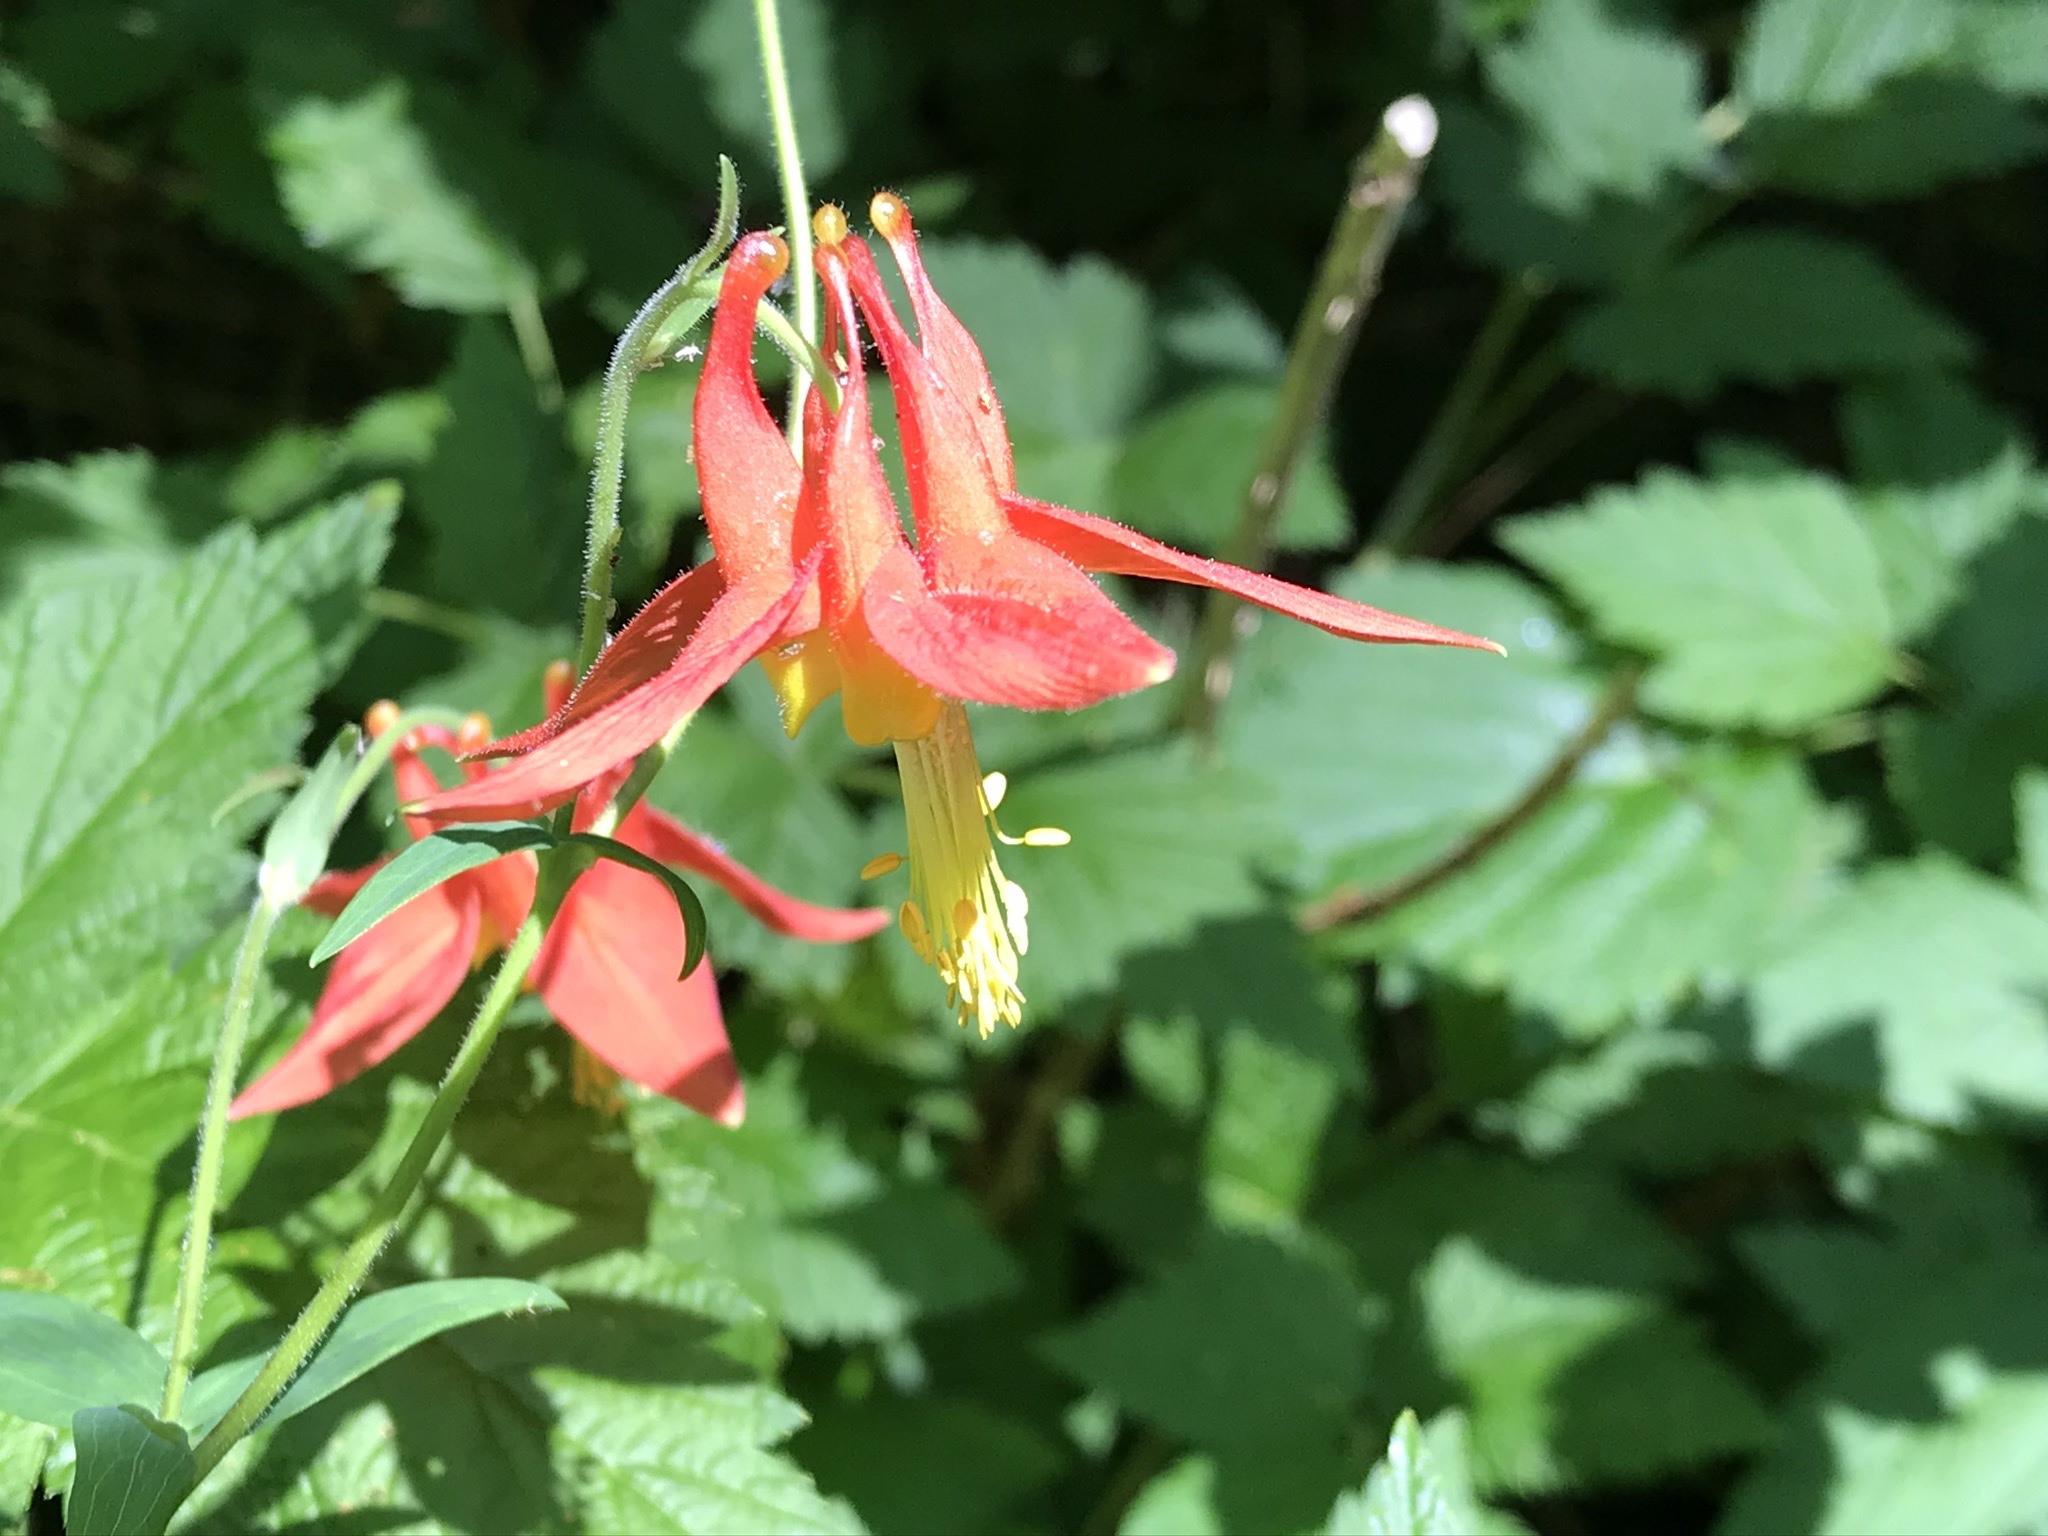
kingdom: Plantae
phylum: Tracheophyta
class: Magnoliopsida
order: Ranunculales
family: Ranunculaceae
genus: Aquilegia
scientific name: Aquilegia formosa
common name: Sitka columbine
